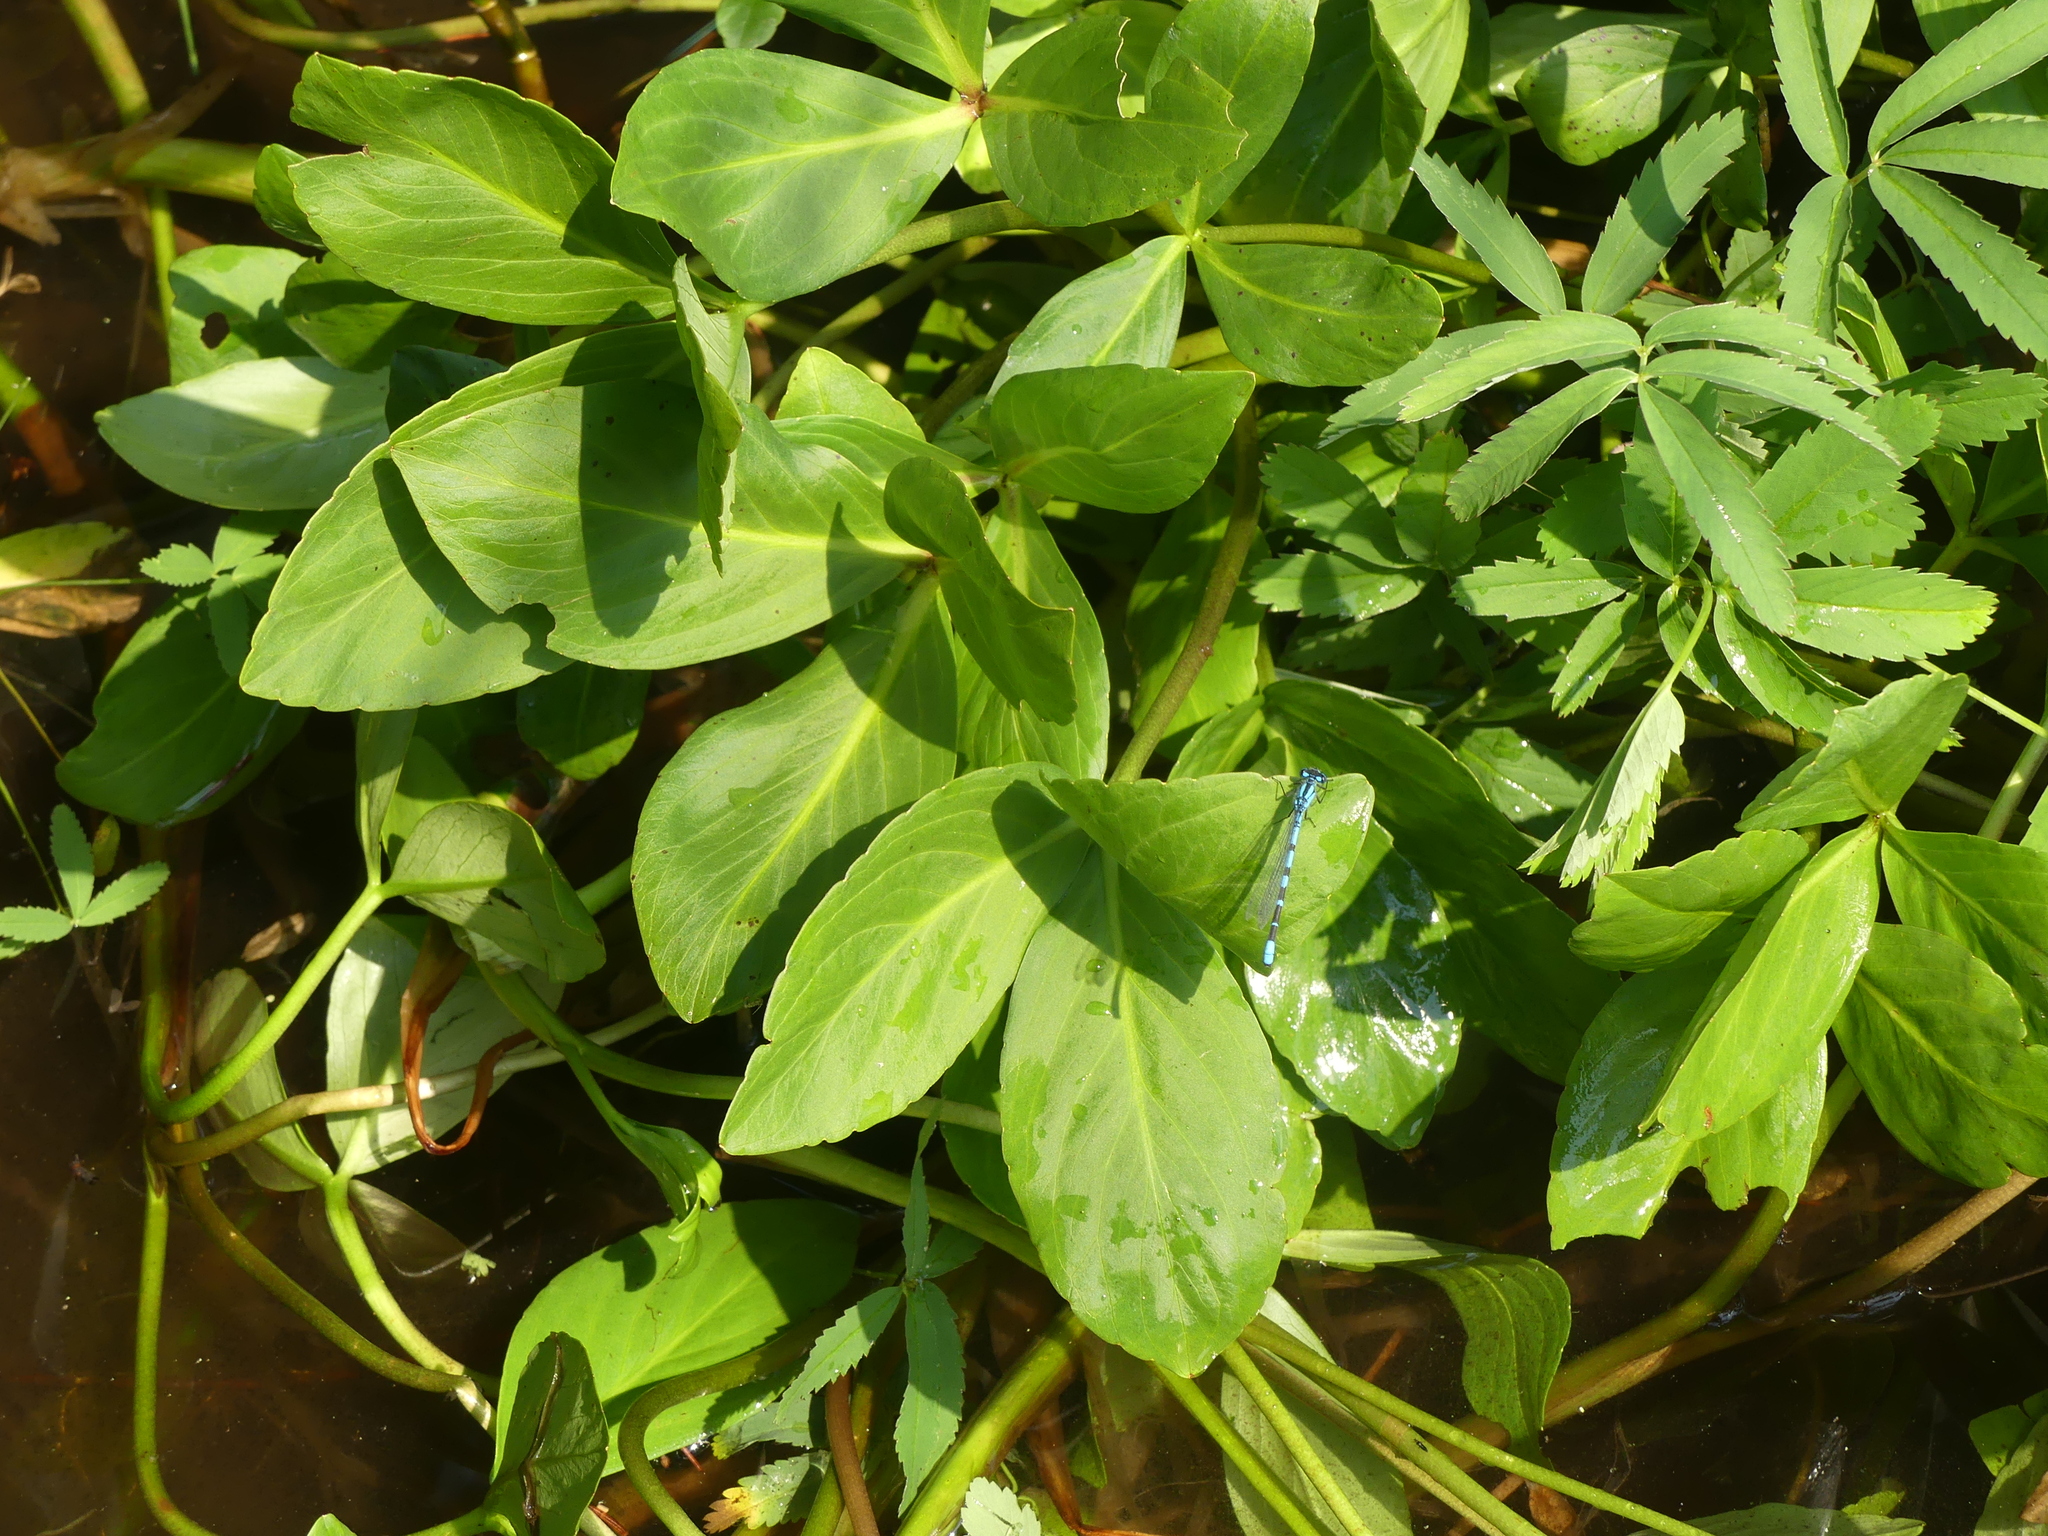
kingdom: Plantae
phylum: Tracheophyta
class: Magnoliopsida
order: Asterales
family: Menyanthaceae
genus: Menyanthes
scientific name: Menyanthes trifoliata
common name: Bogbean
